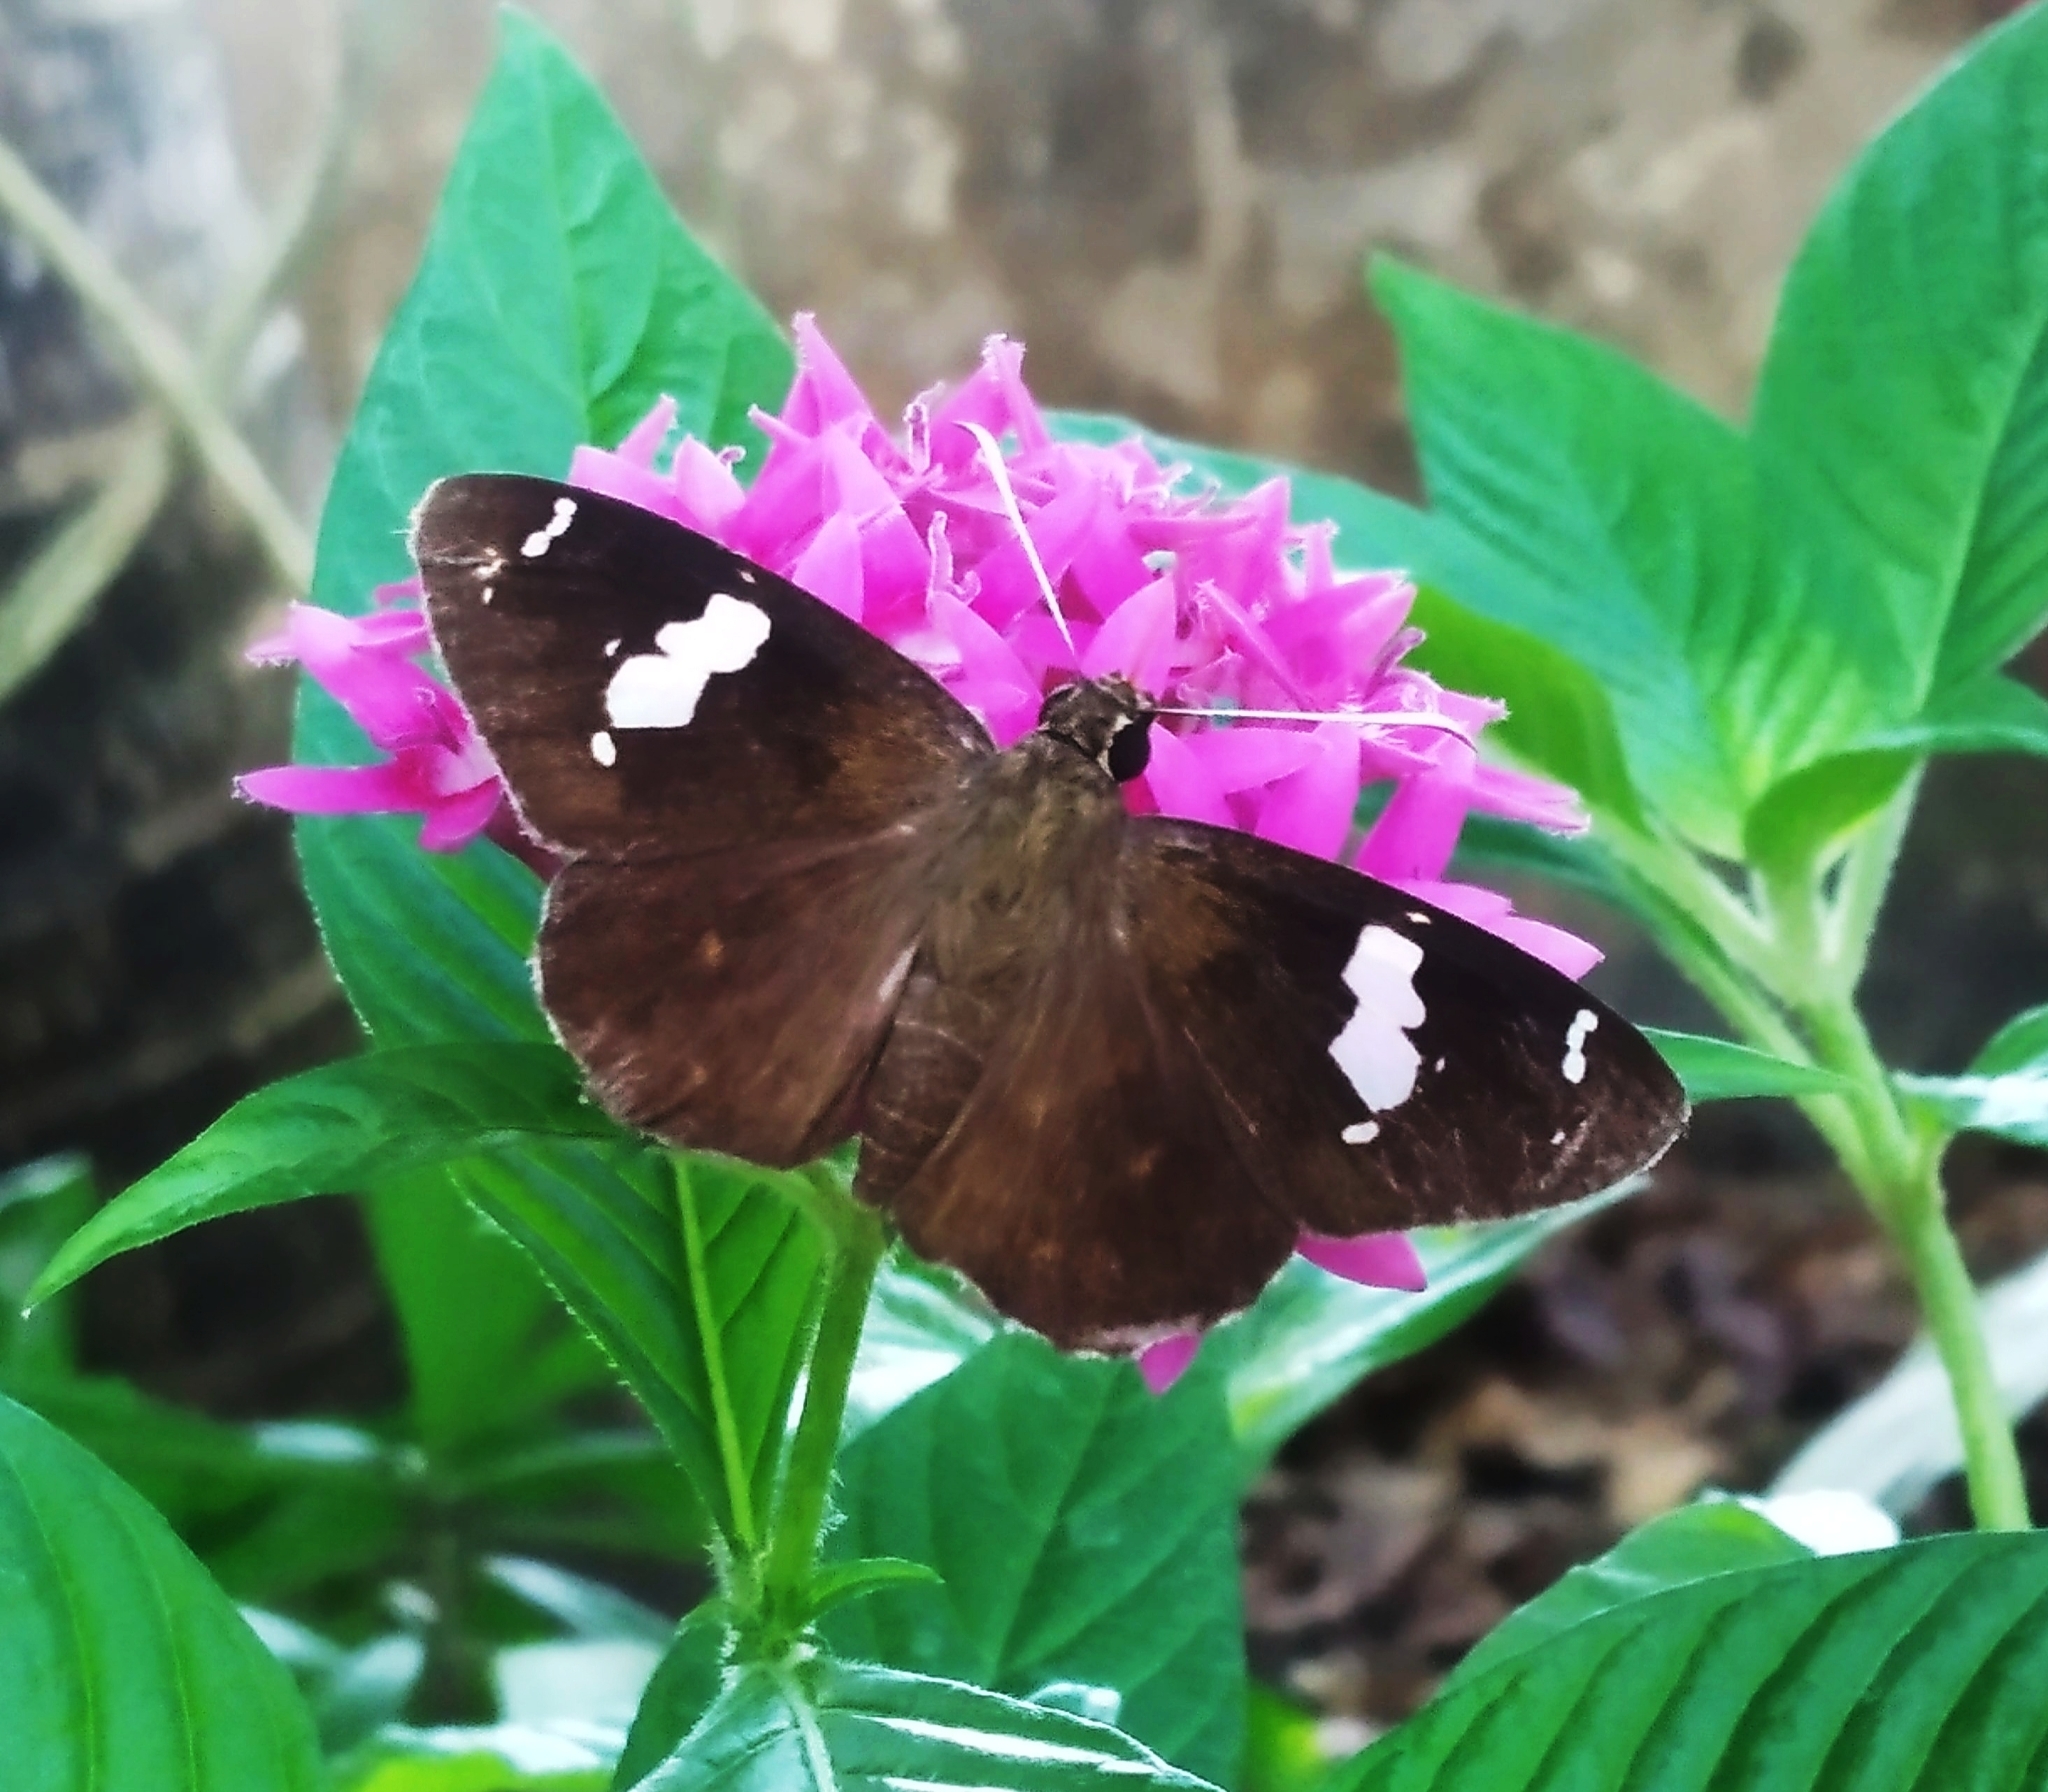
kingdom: Animalia
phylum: Arthropoda
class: Insecta
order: Lepidoptera
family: Hesperiidae
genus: Celaenorrhinus
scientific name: Celaenorrhinus leucocera
